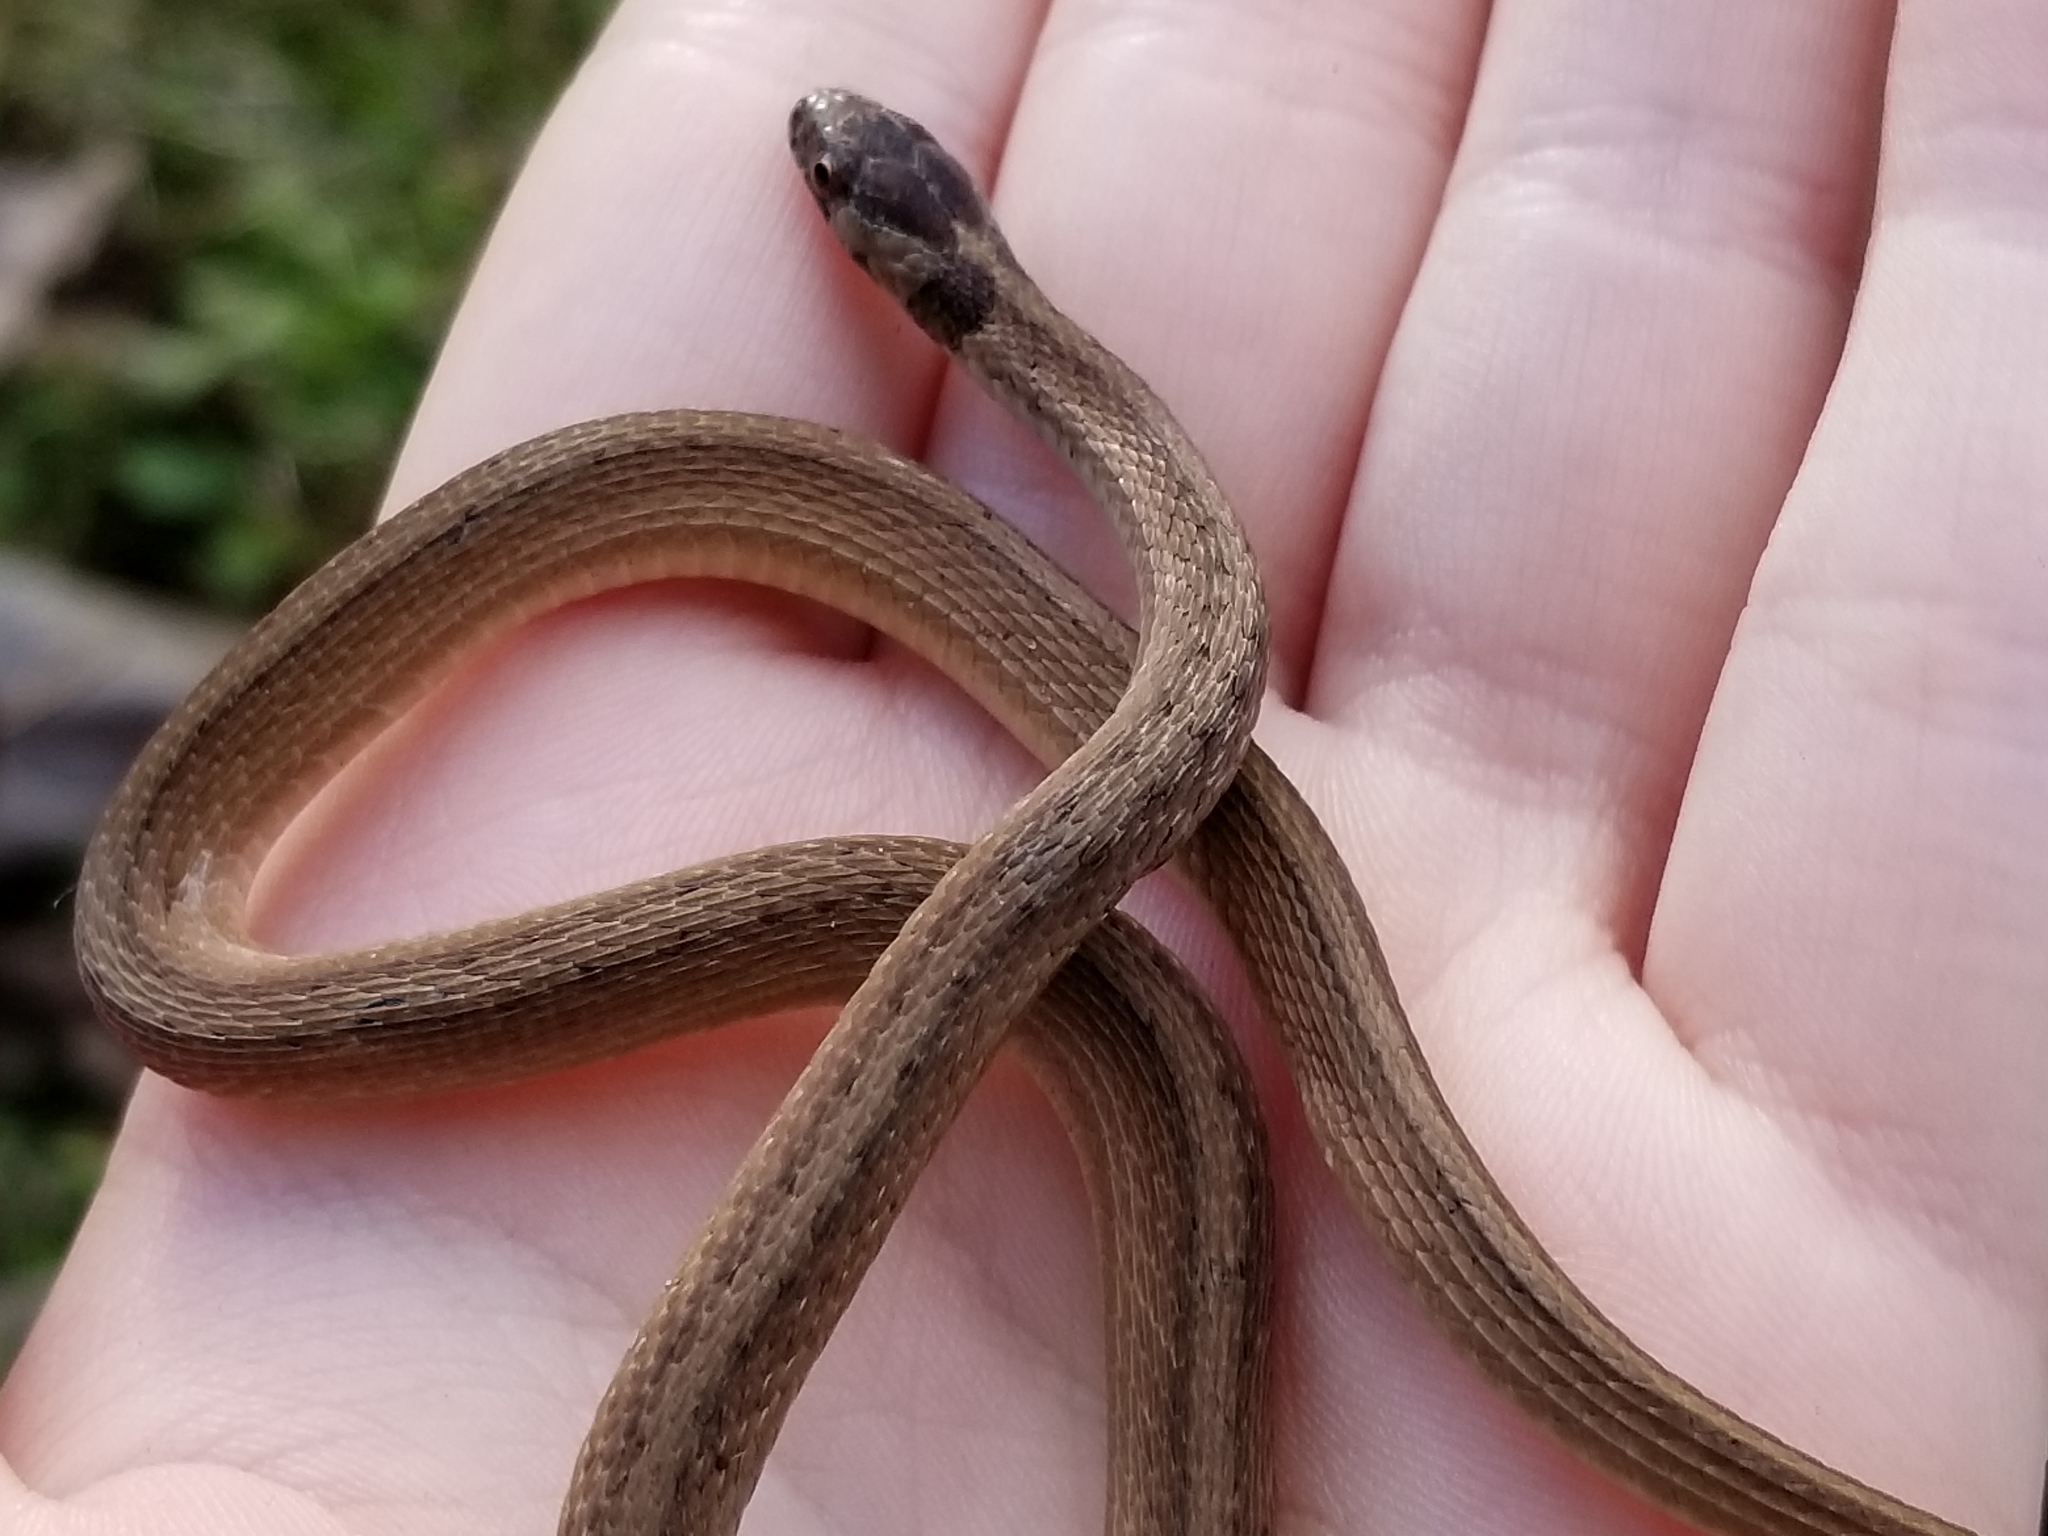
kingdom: Animalia
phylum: Chordata
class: Squamata
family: Colubridae
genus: Storeria
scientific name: Storeria dekayi
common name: (dekay’s) brown snake
